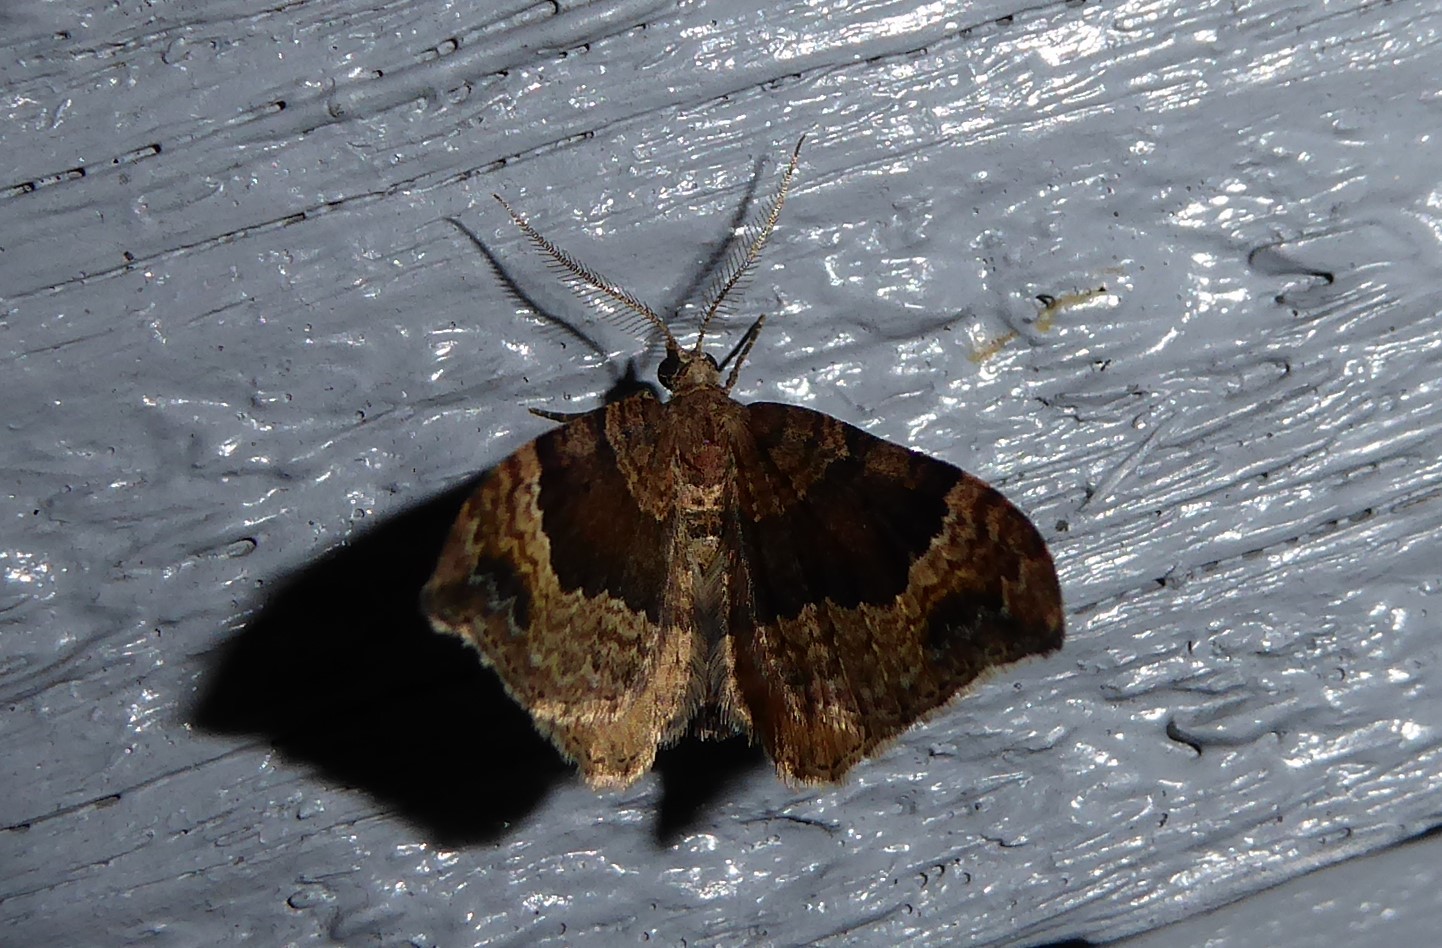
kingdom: Animalia
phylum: Arthropoda
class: Insecta
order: Lepidoptera
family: Geometridae
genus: Homodotis
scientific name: Homodotis megaspilata
